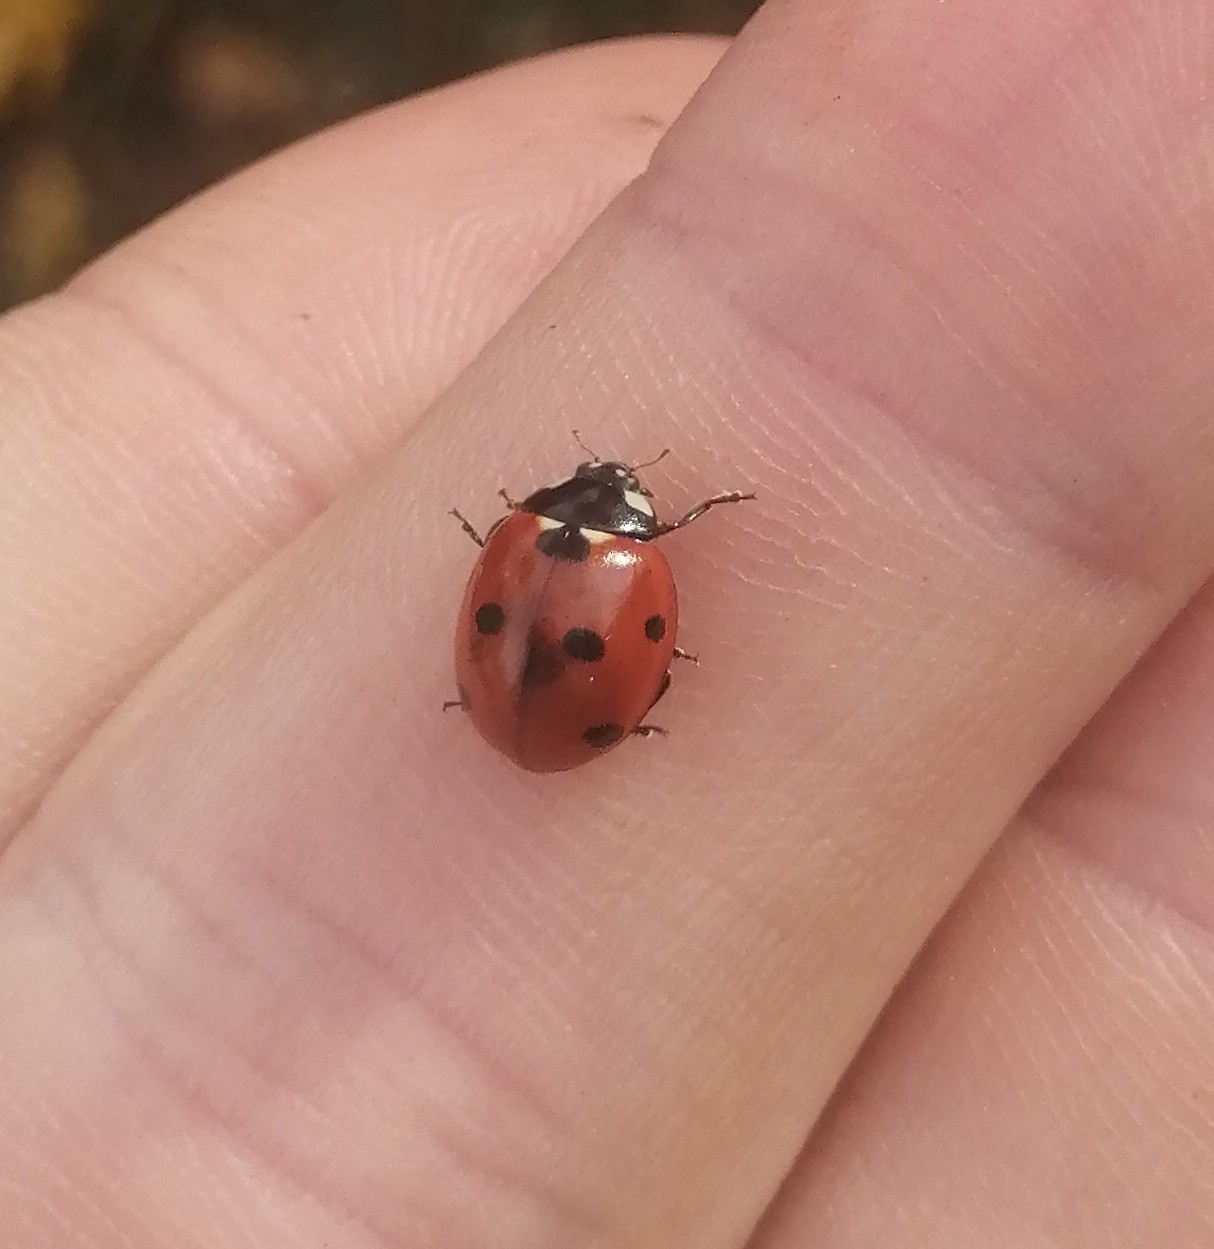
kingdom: Animalia
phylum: Arthropoda
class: Insecta
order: Coleoptera
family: Coccinellidae
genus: Coccinella
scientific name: Coccinella septempunctata
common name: Sevenspotted lady beetle
